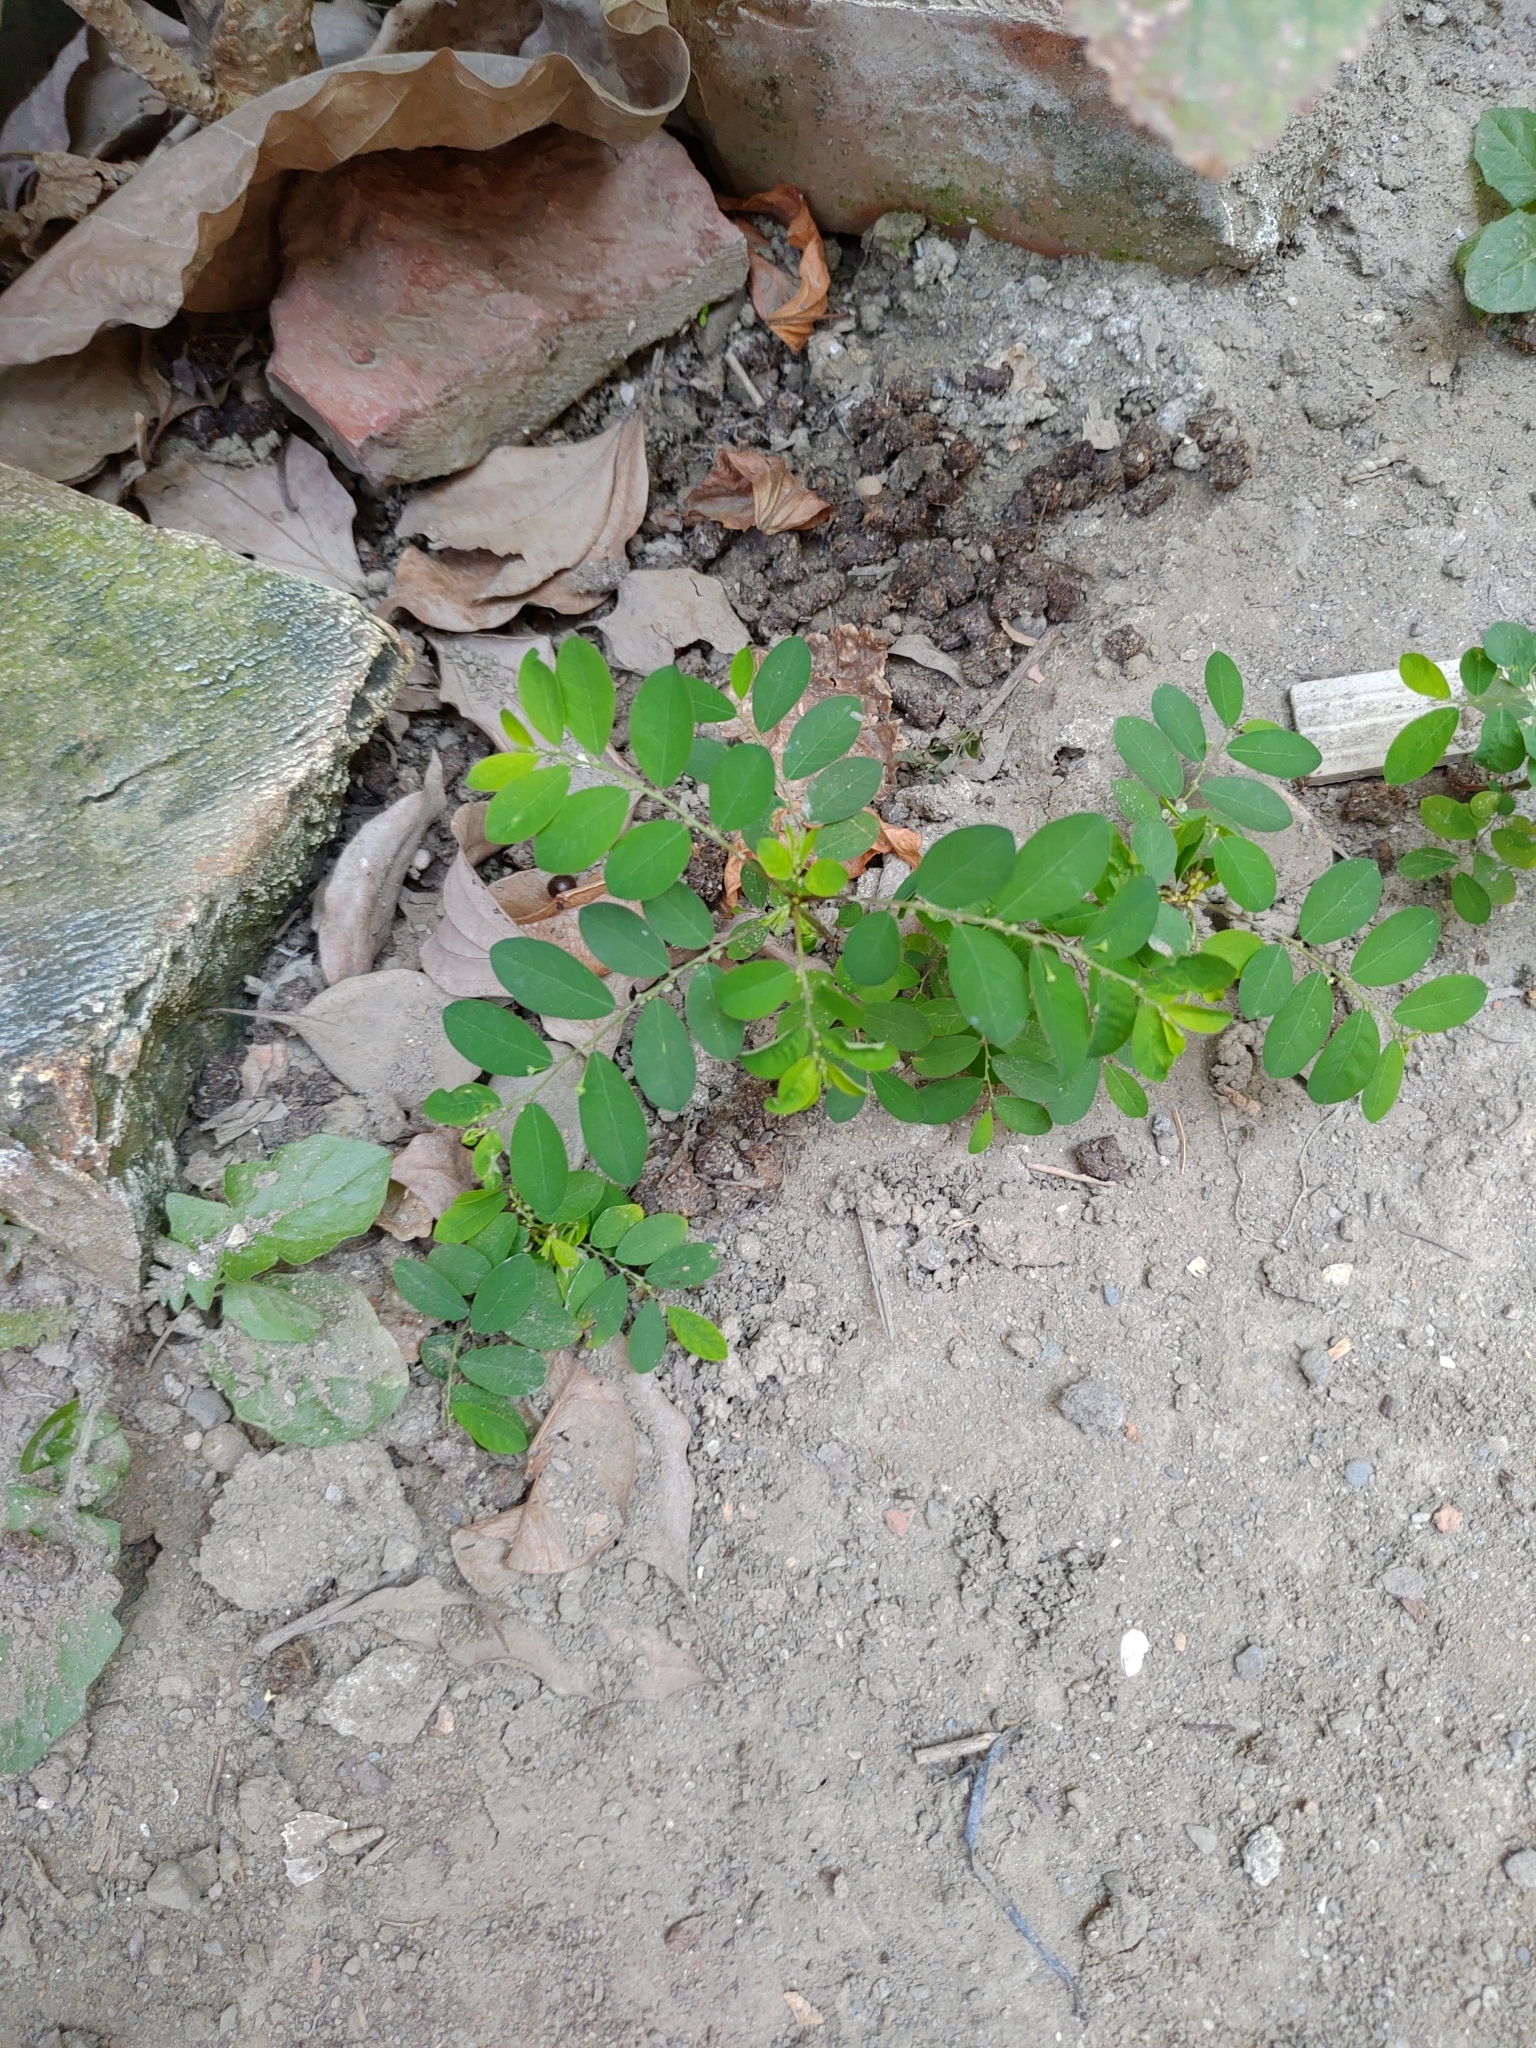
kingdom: Plantae
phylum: Tracheophyta
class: Magnoliopsida
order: Malpighiales
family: Phyllanthaceae
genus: Phyllanthus
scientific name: Phyllanthus tenellus
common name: Mascarene island leaf-flower
